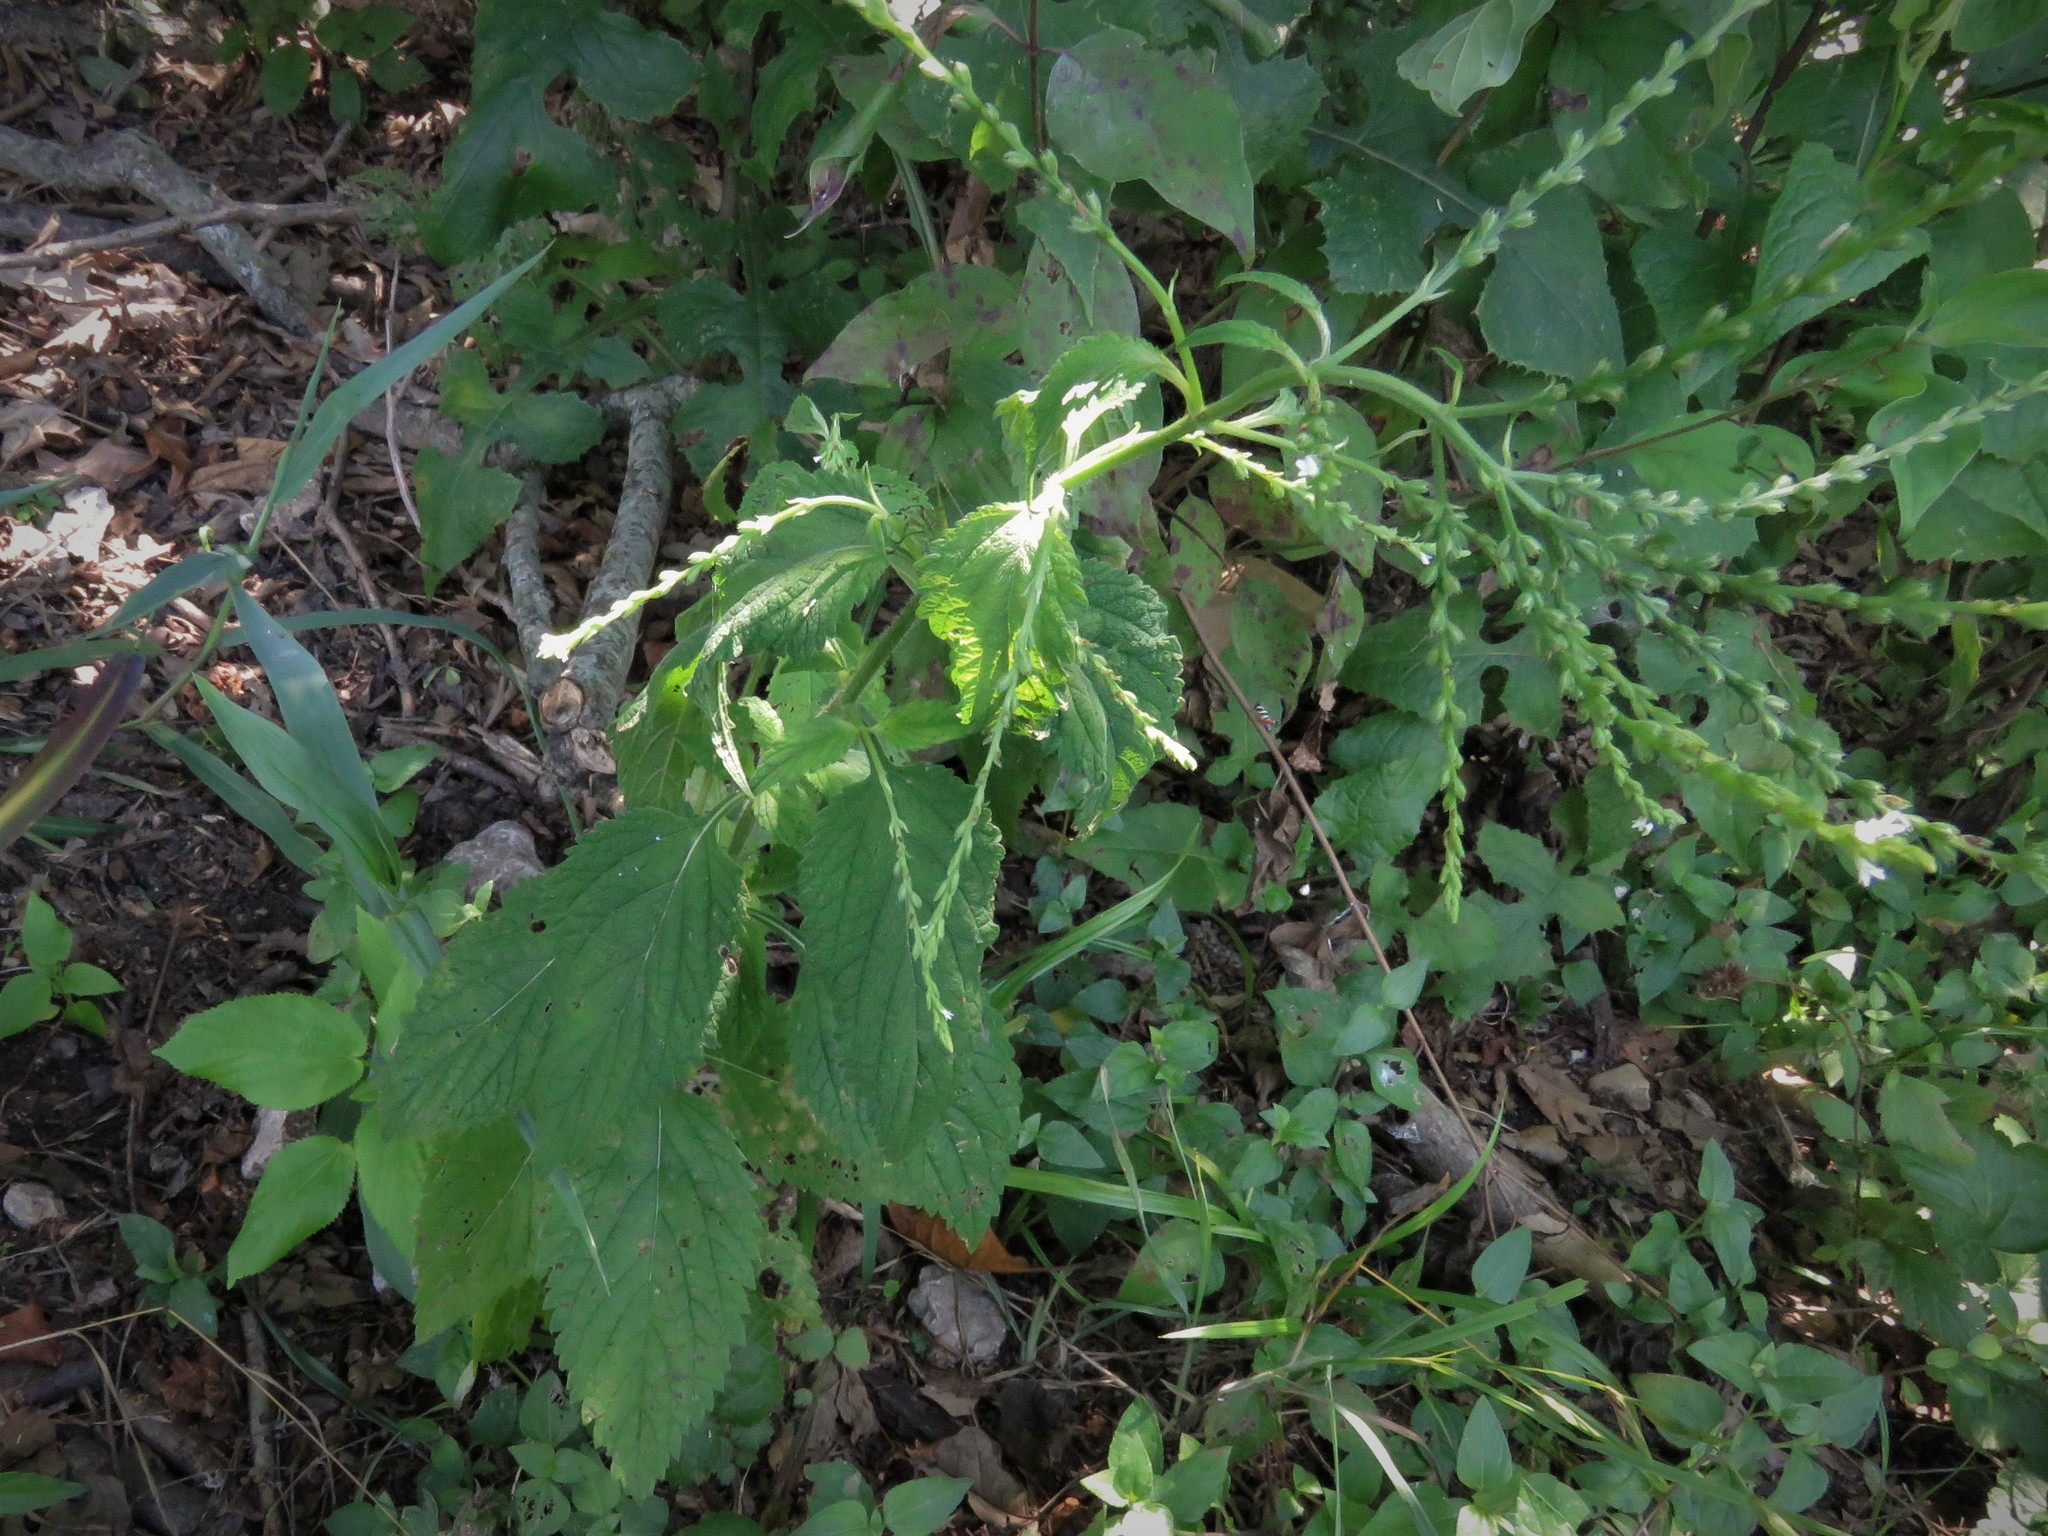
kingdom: Plantae
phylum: Tracheophyta
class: Magnoliopsida
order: Lamiales
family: Verbenaceae
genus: Verbena
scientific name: Verbena urticifolia
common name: Nettle-leaved vervain
